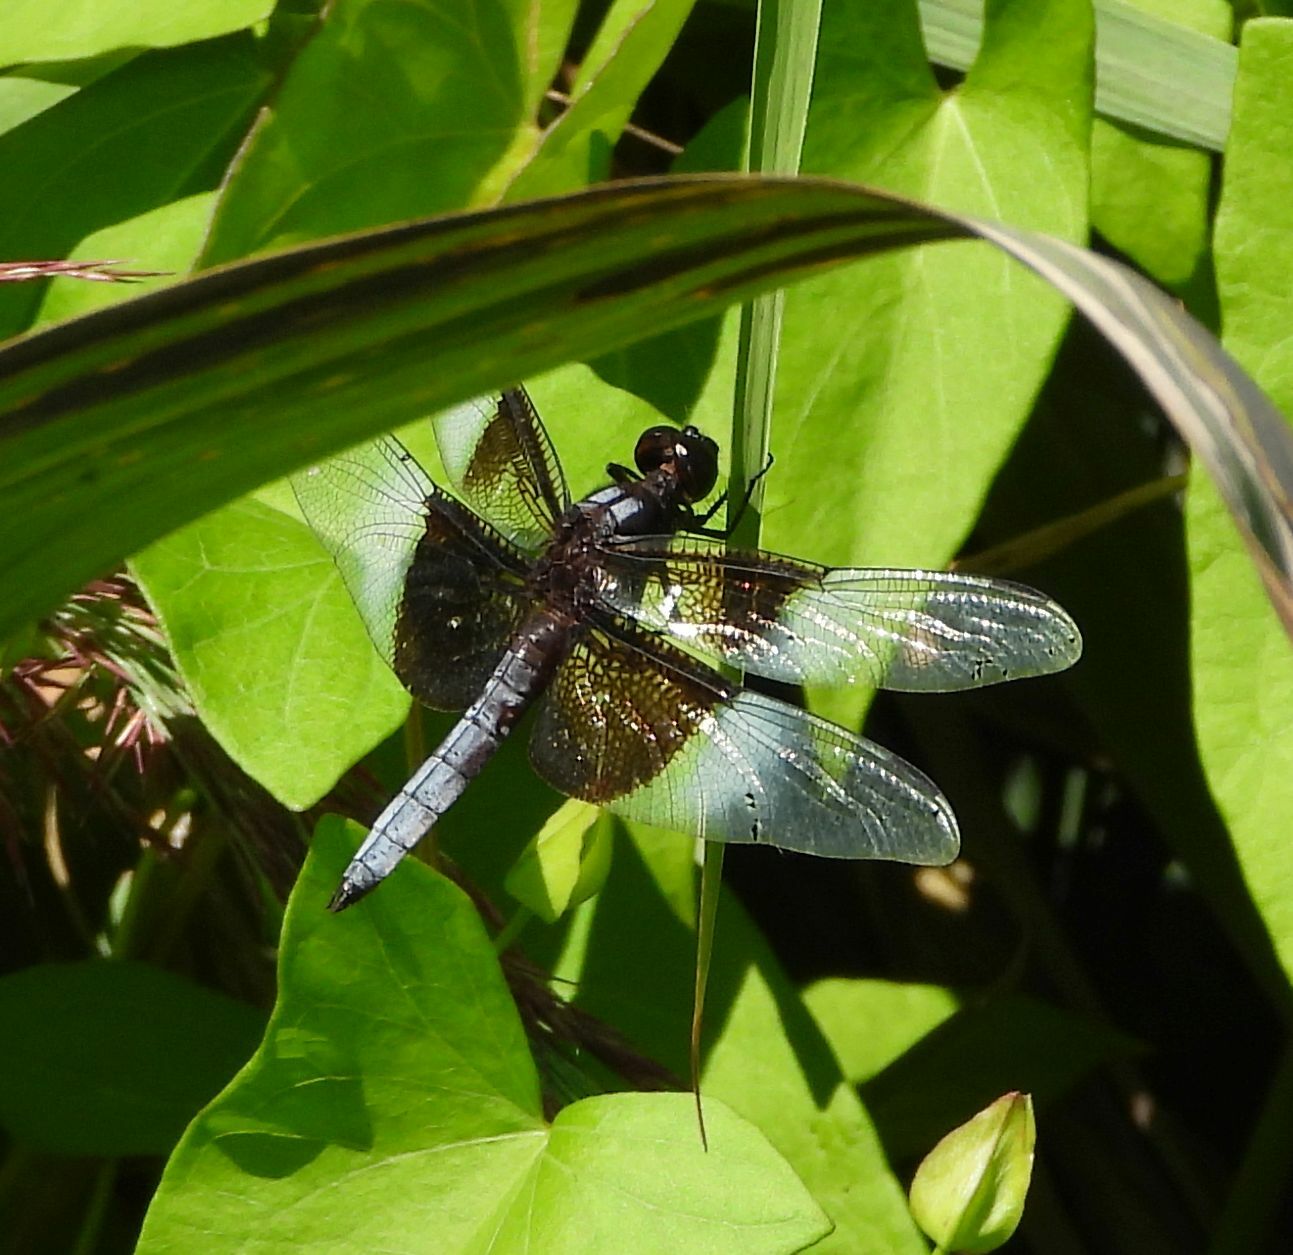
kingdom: Animalia
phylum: Arthropoda
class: Insecta
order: Odonata
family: Libellulidae
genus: Libellula
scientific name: Libellula luctuosa
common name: Widow skimmer
